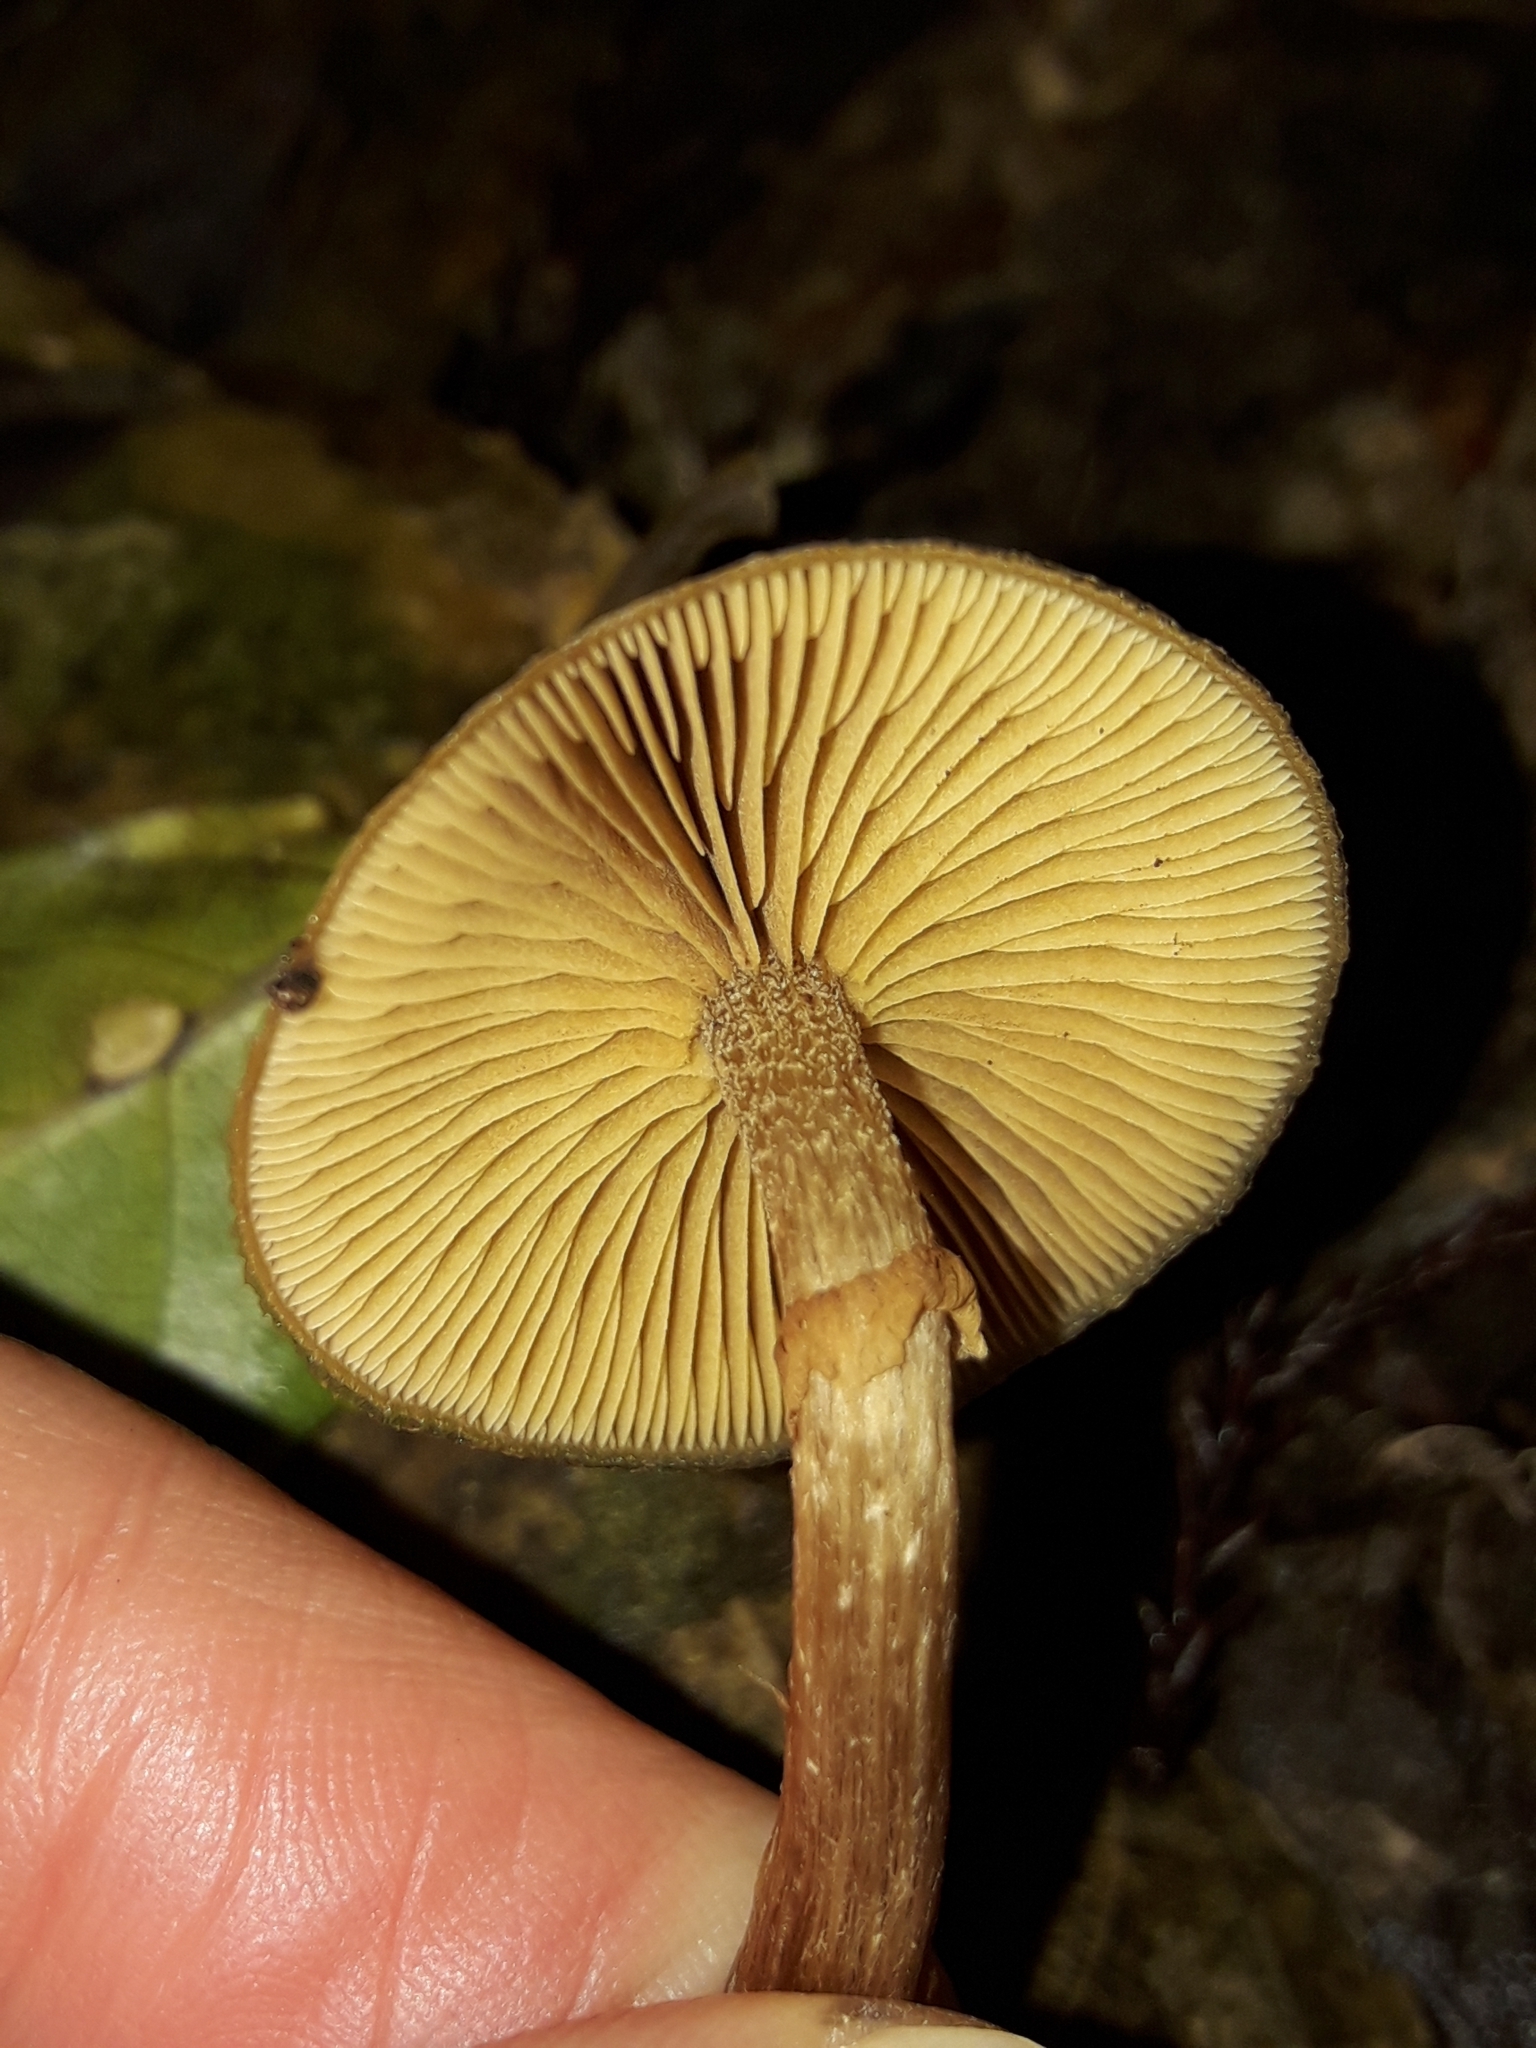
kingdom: Fungi
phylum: Basidiomycota
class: Agaricomycetes
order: Agaricales
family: Hymenogastraceae
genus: Galerina
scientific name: Galerina patagonica
